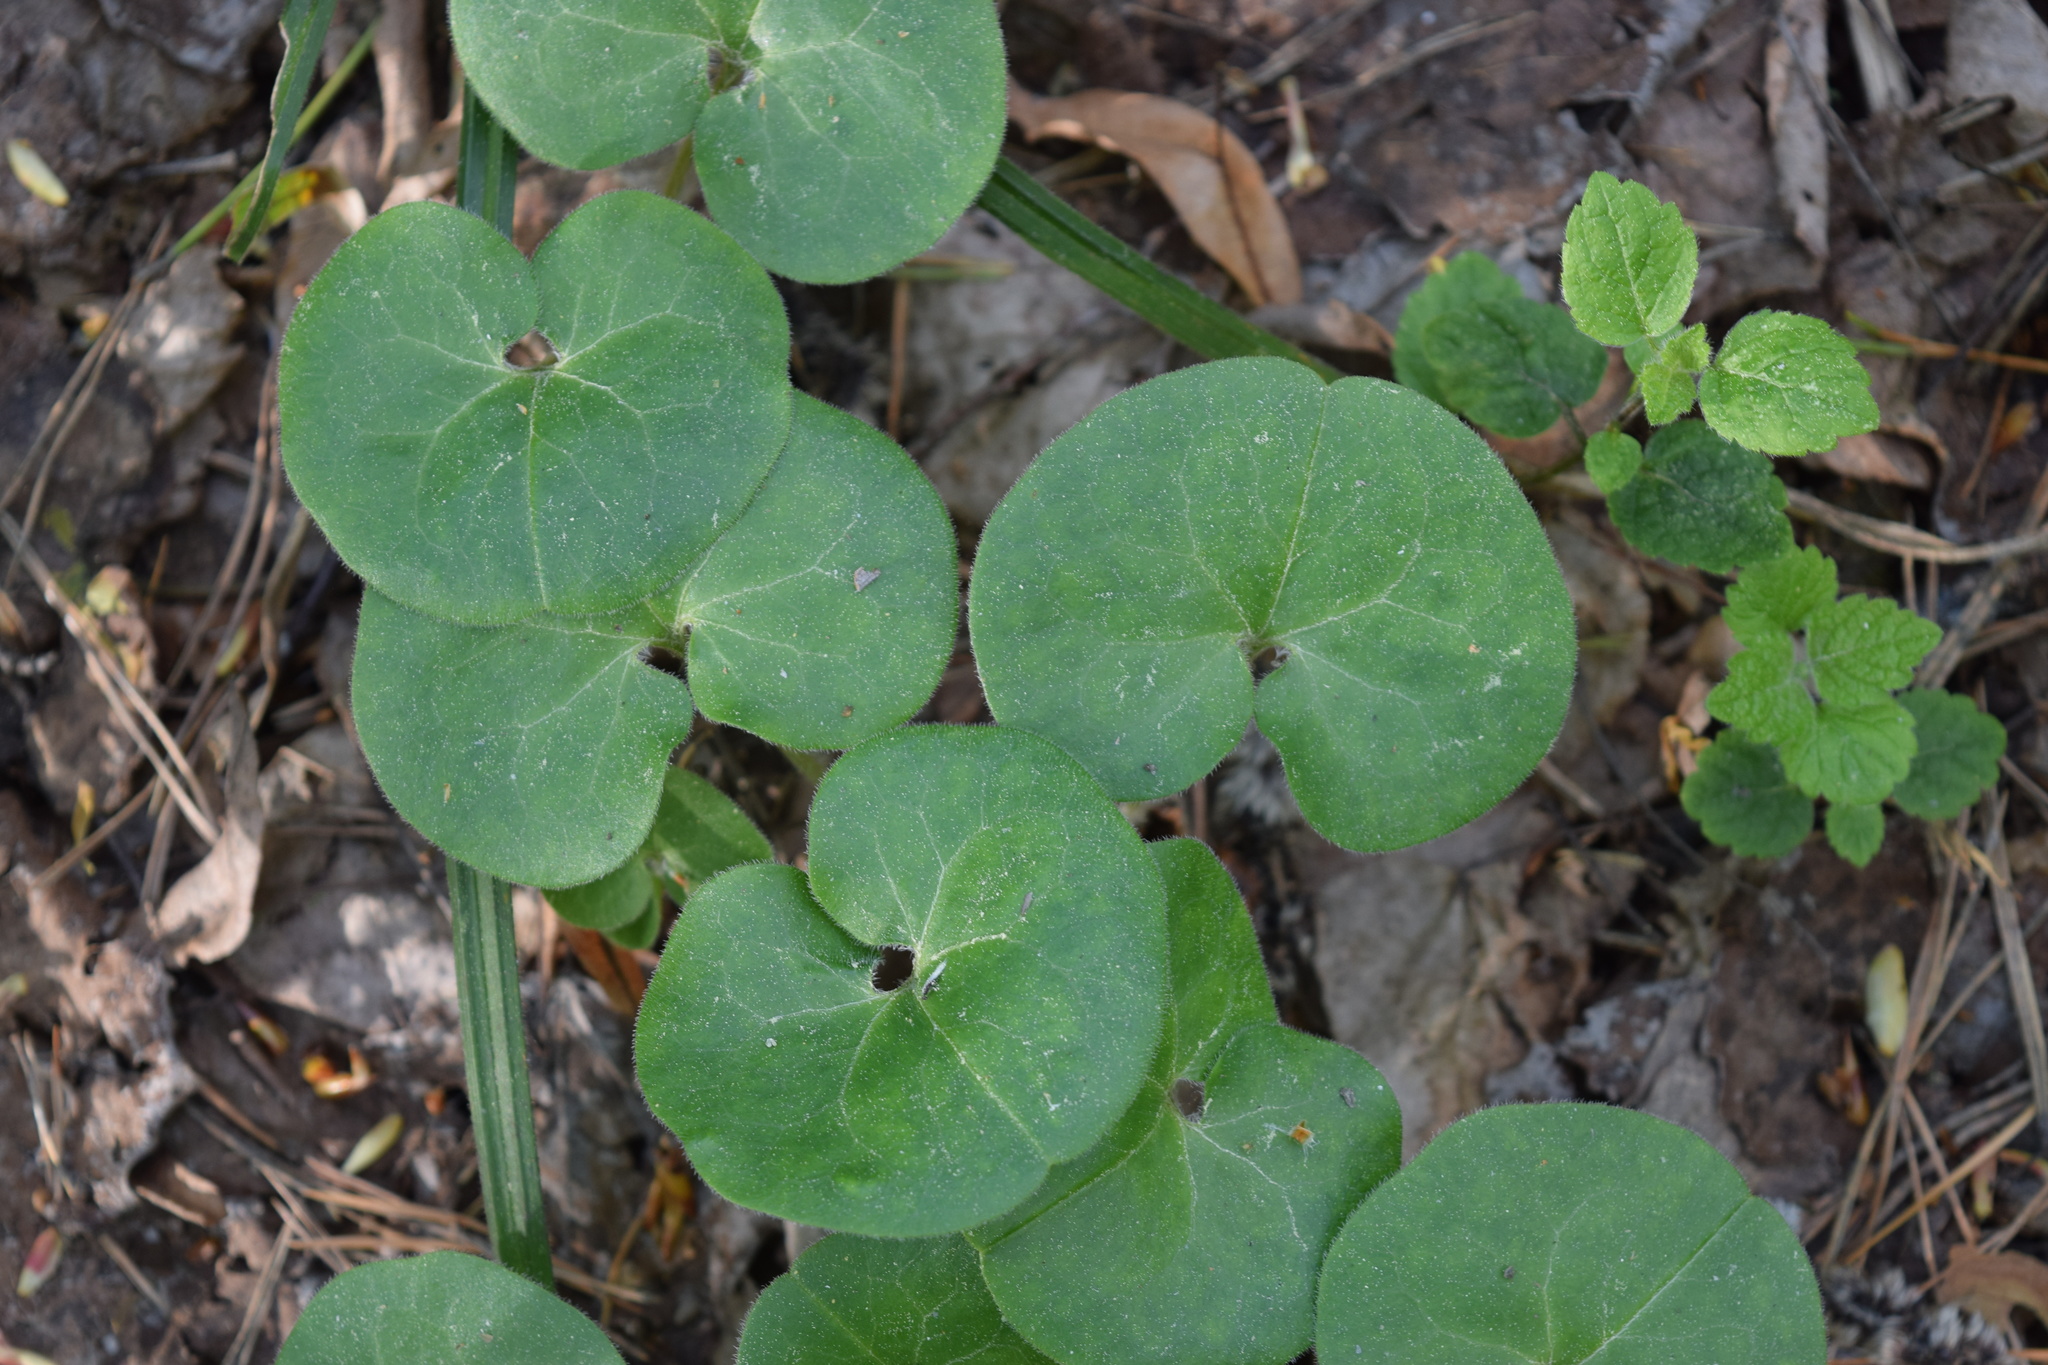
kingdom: Plantae
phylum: Tracheophyta
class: Magnoliopsida
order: Piperales
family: Aristolochiaceae
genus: Asarum
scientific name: Asarum europaeum
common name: Asarabacca
